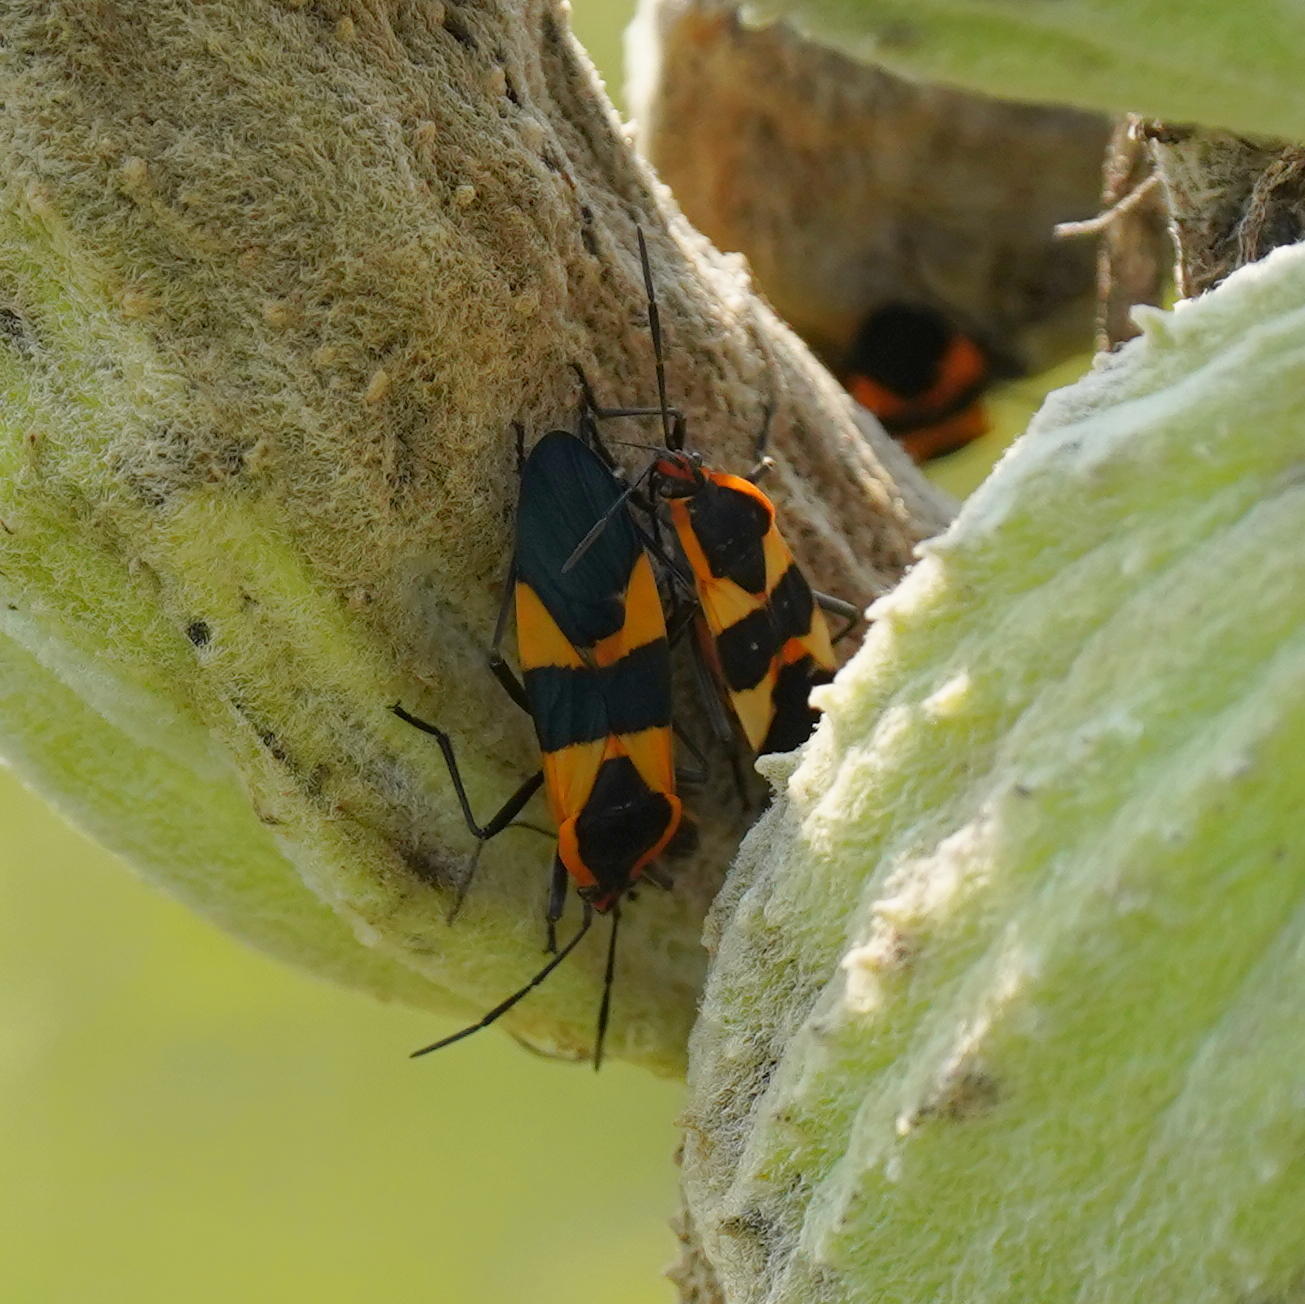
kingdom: Animalia
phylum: Arthropoda
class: Insecta
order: Hemiptera
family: Lygaeidae
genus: Oncopeltus
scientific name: Oncopeltus fasciatus
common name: Large milkweed bug
